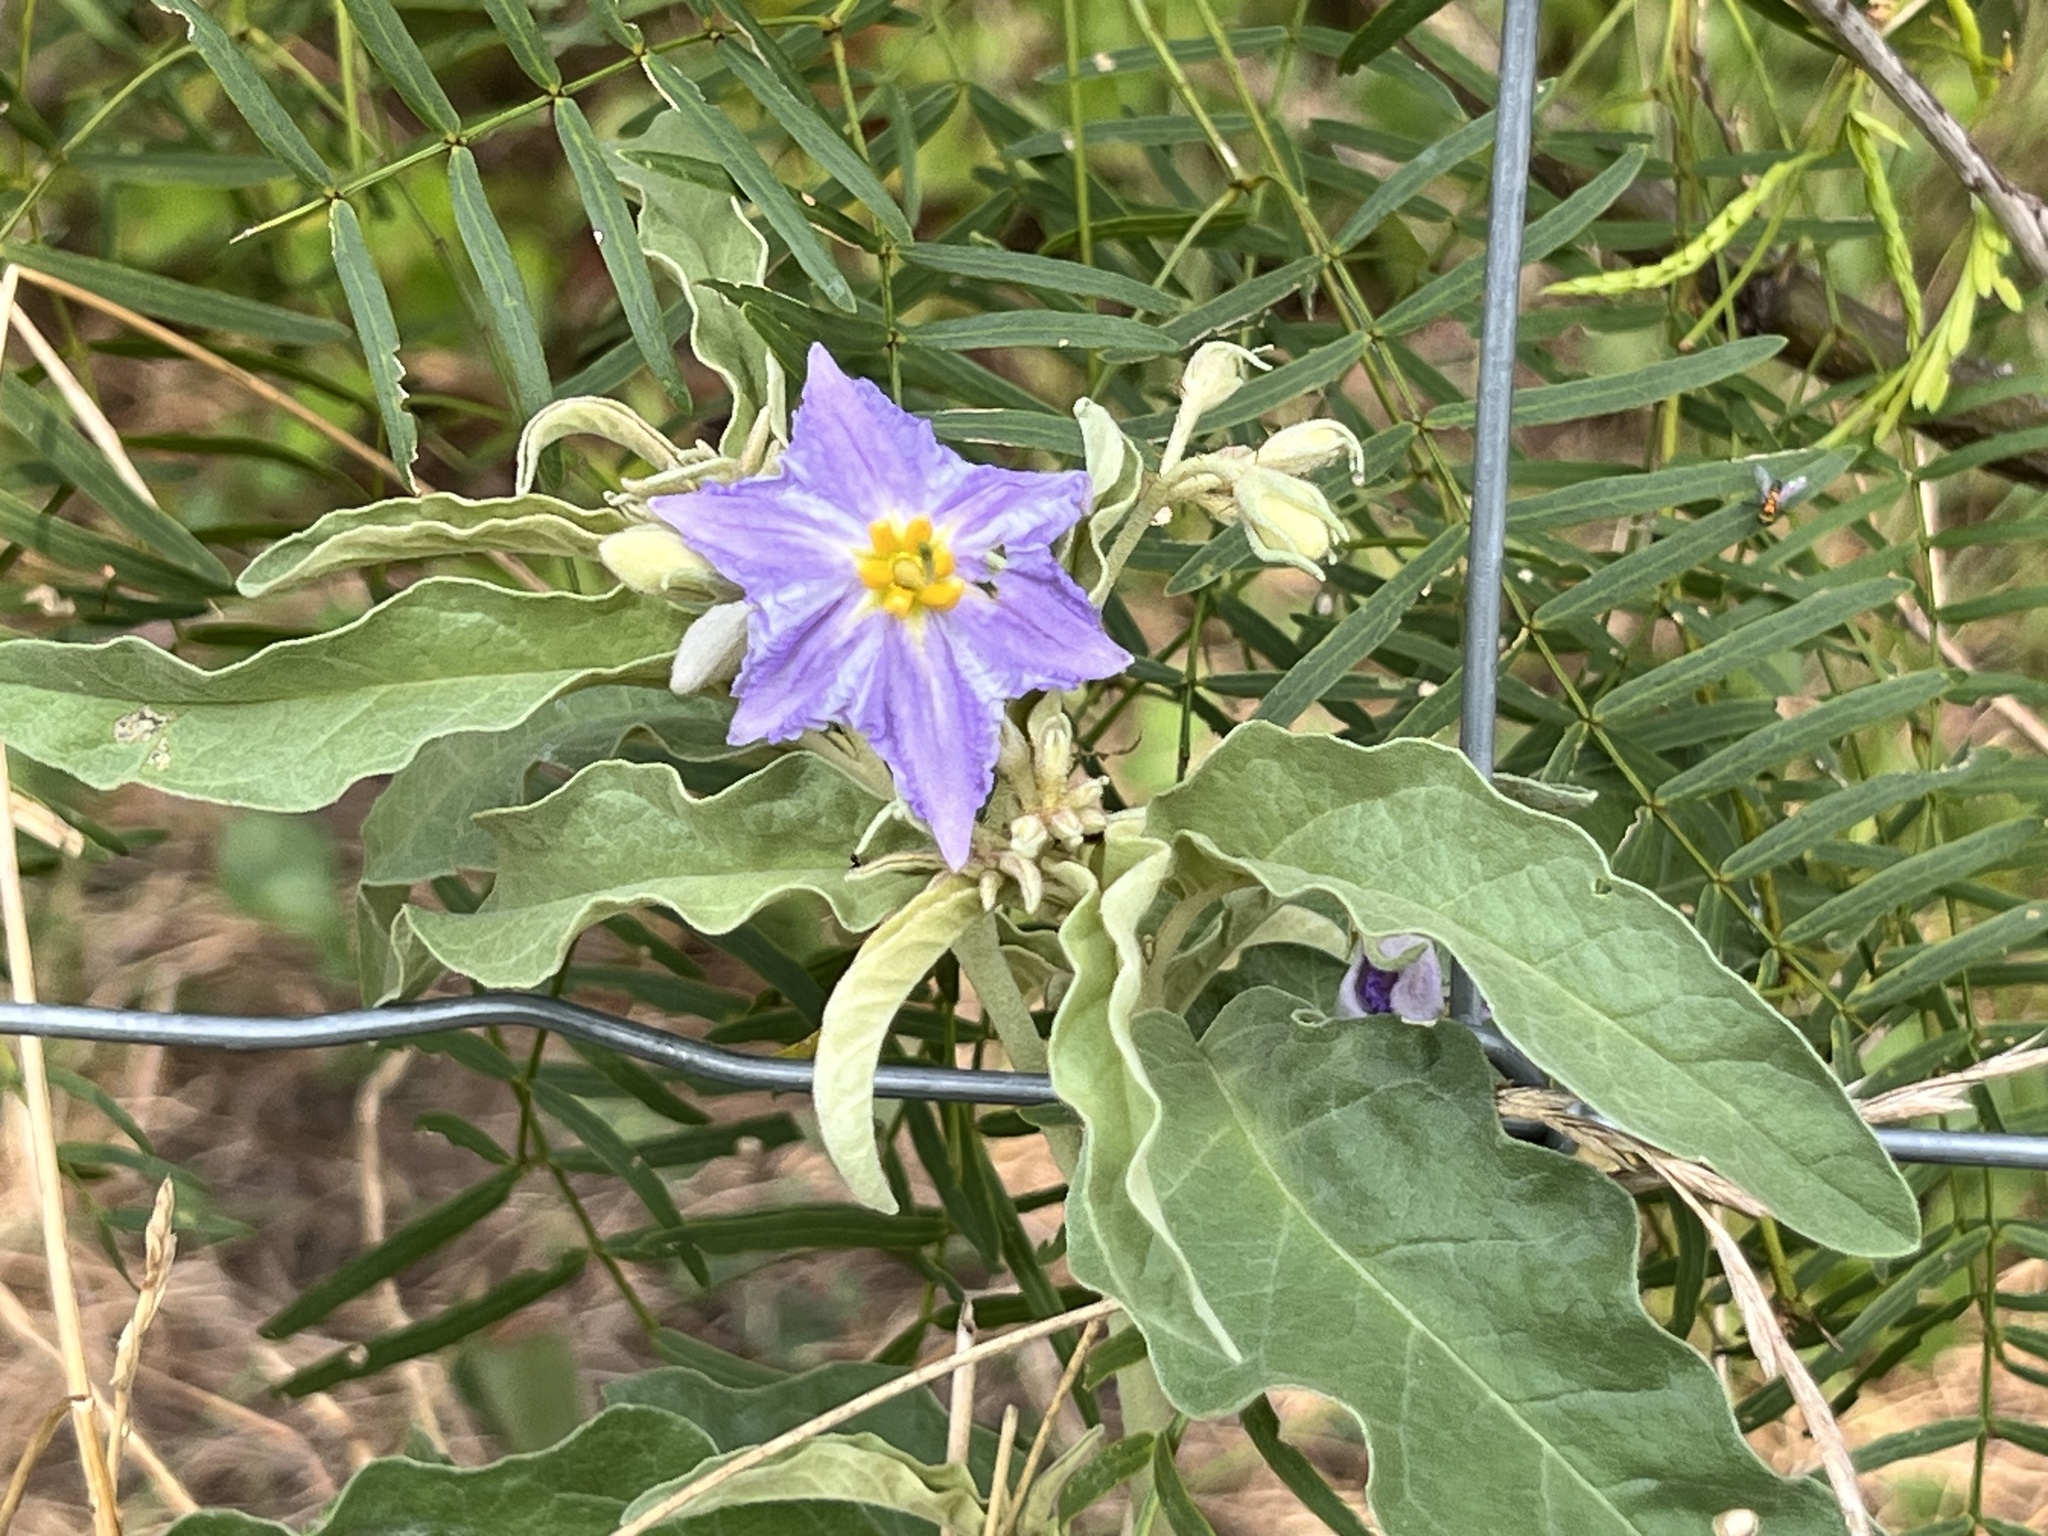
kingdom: Plantae
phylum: Tracheophyta
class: Magnoliopsida
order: Solanales
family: Solanaceae
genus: Solanum
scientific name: Solanum elaeagnifolium
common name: Silverleaf nightshade
